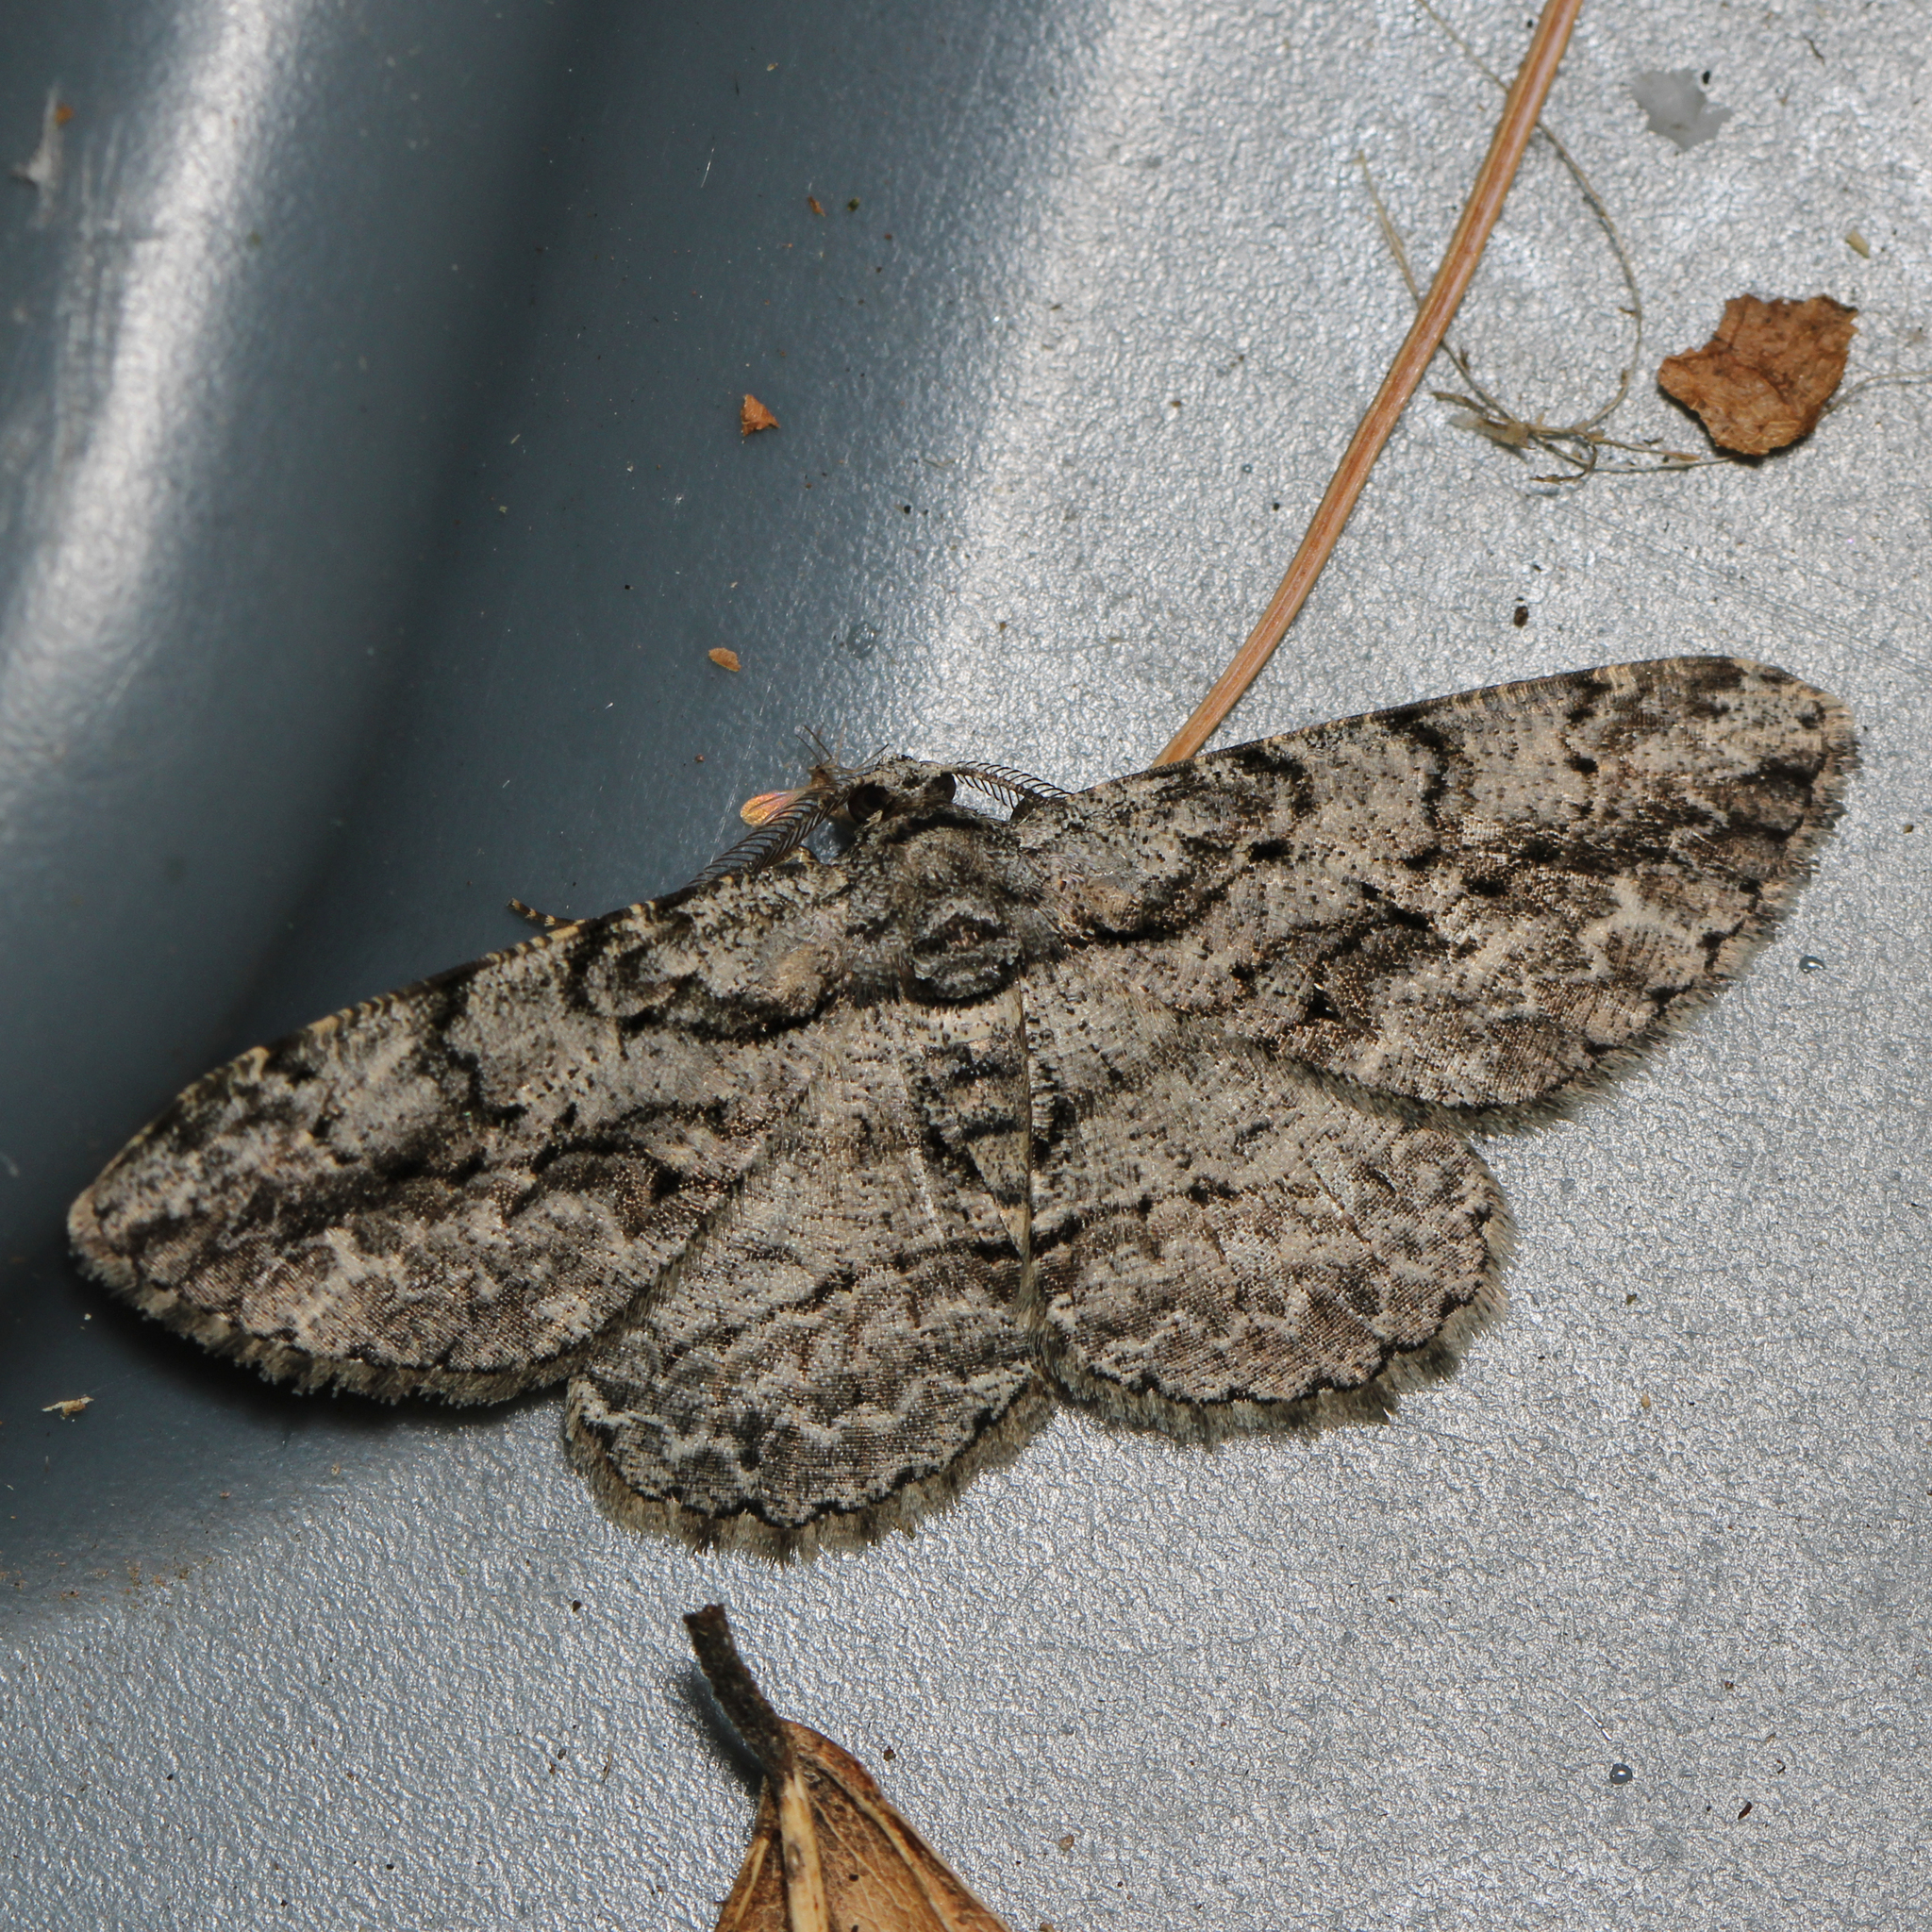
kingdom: Animalia
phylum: Arthropoda
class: Insecta
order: Lepidoptera
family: Geometridae
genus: Anavitrinella
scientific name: Anavitrinella pampinaria
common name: Common gray
